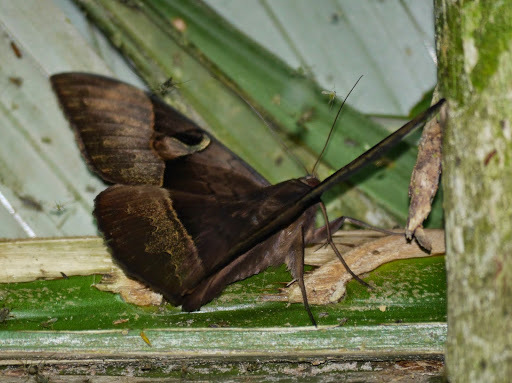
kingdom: Animalia
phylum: Arthropoda
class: Insecta
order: Lepidoptera
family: Erebidae
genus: Cyligramma
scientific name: Cyligramma fluctuosa
